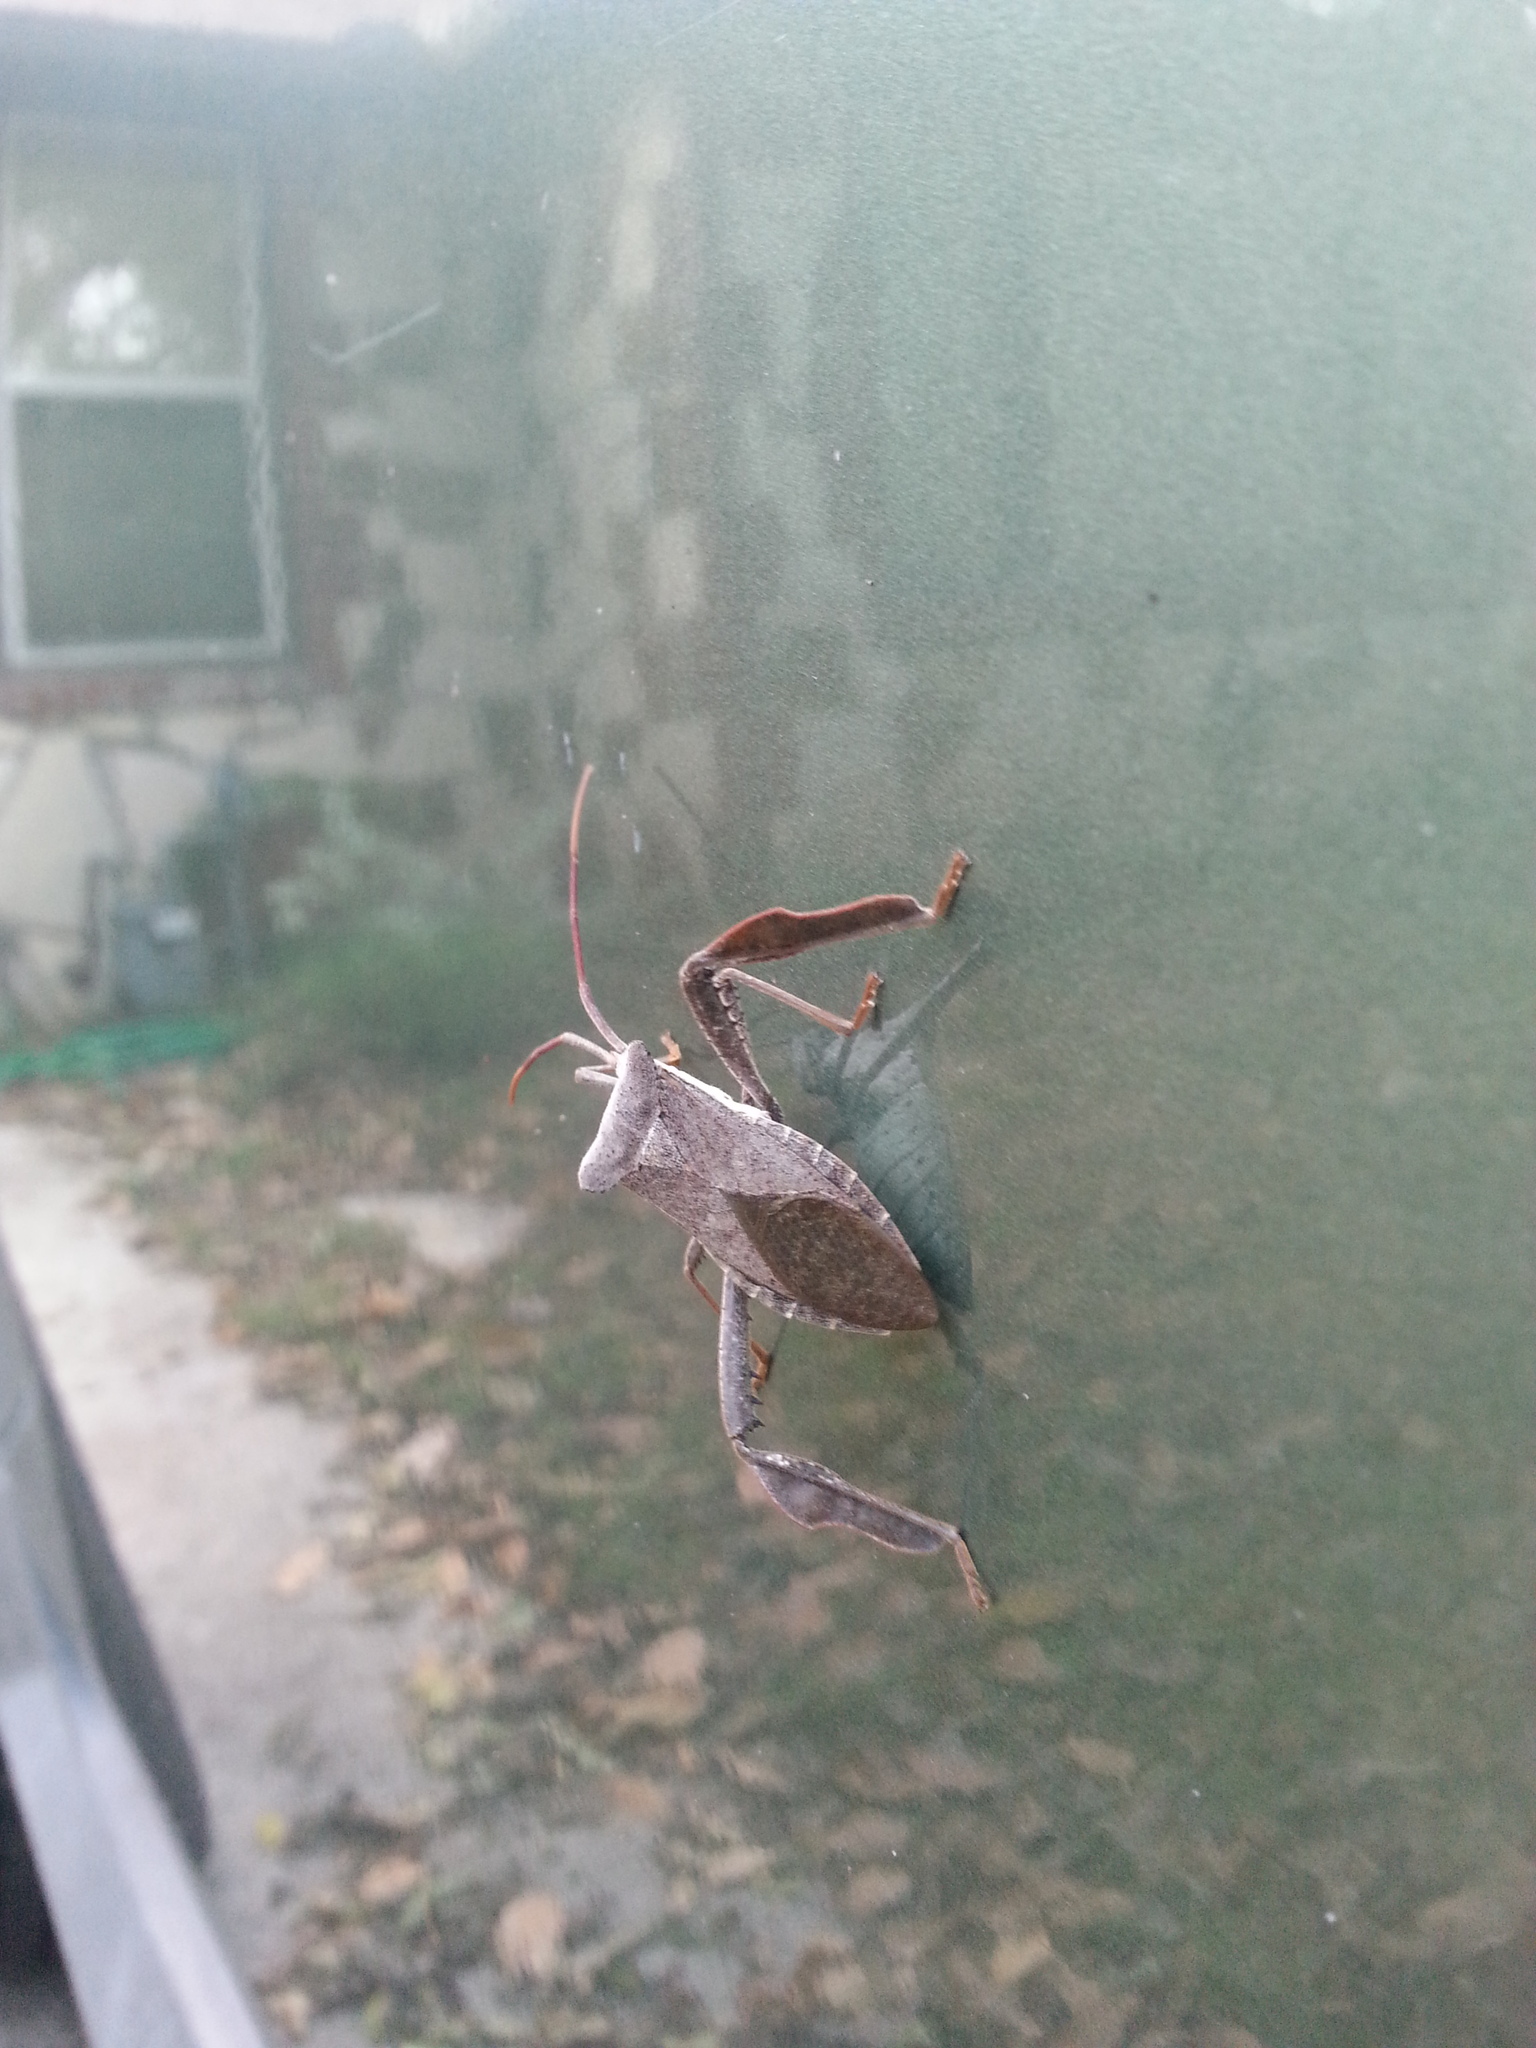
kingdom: Animalia
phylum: Arthropoda
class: Insecta
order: Hemiptera
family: Coreidae
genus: Acanthocephala
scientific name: Acanthocephala declivis
